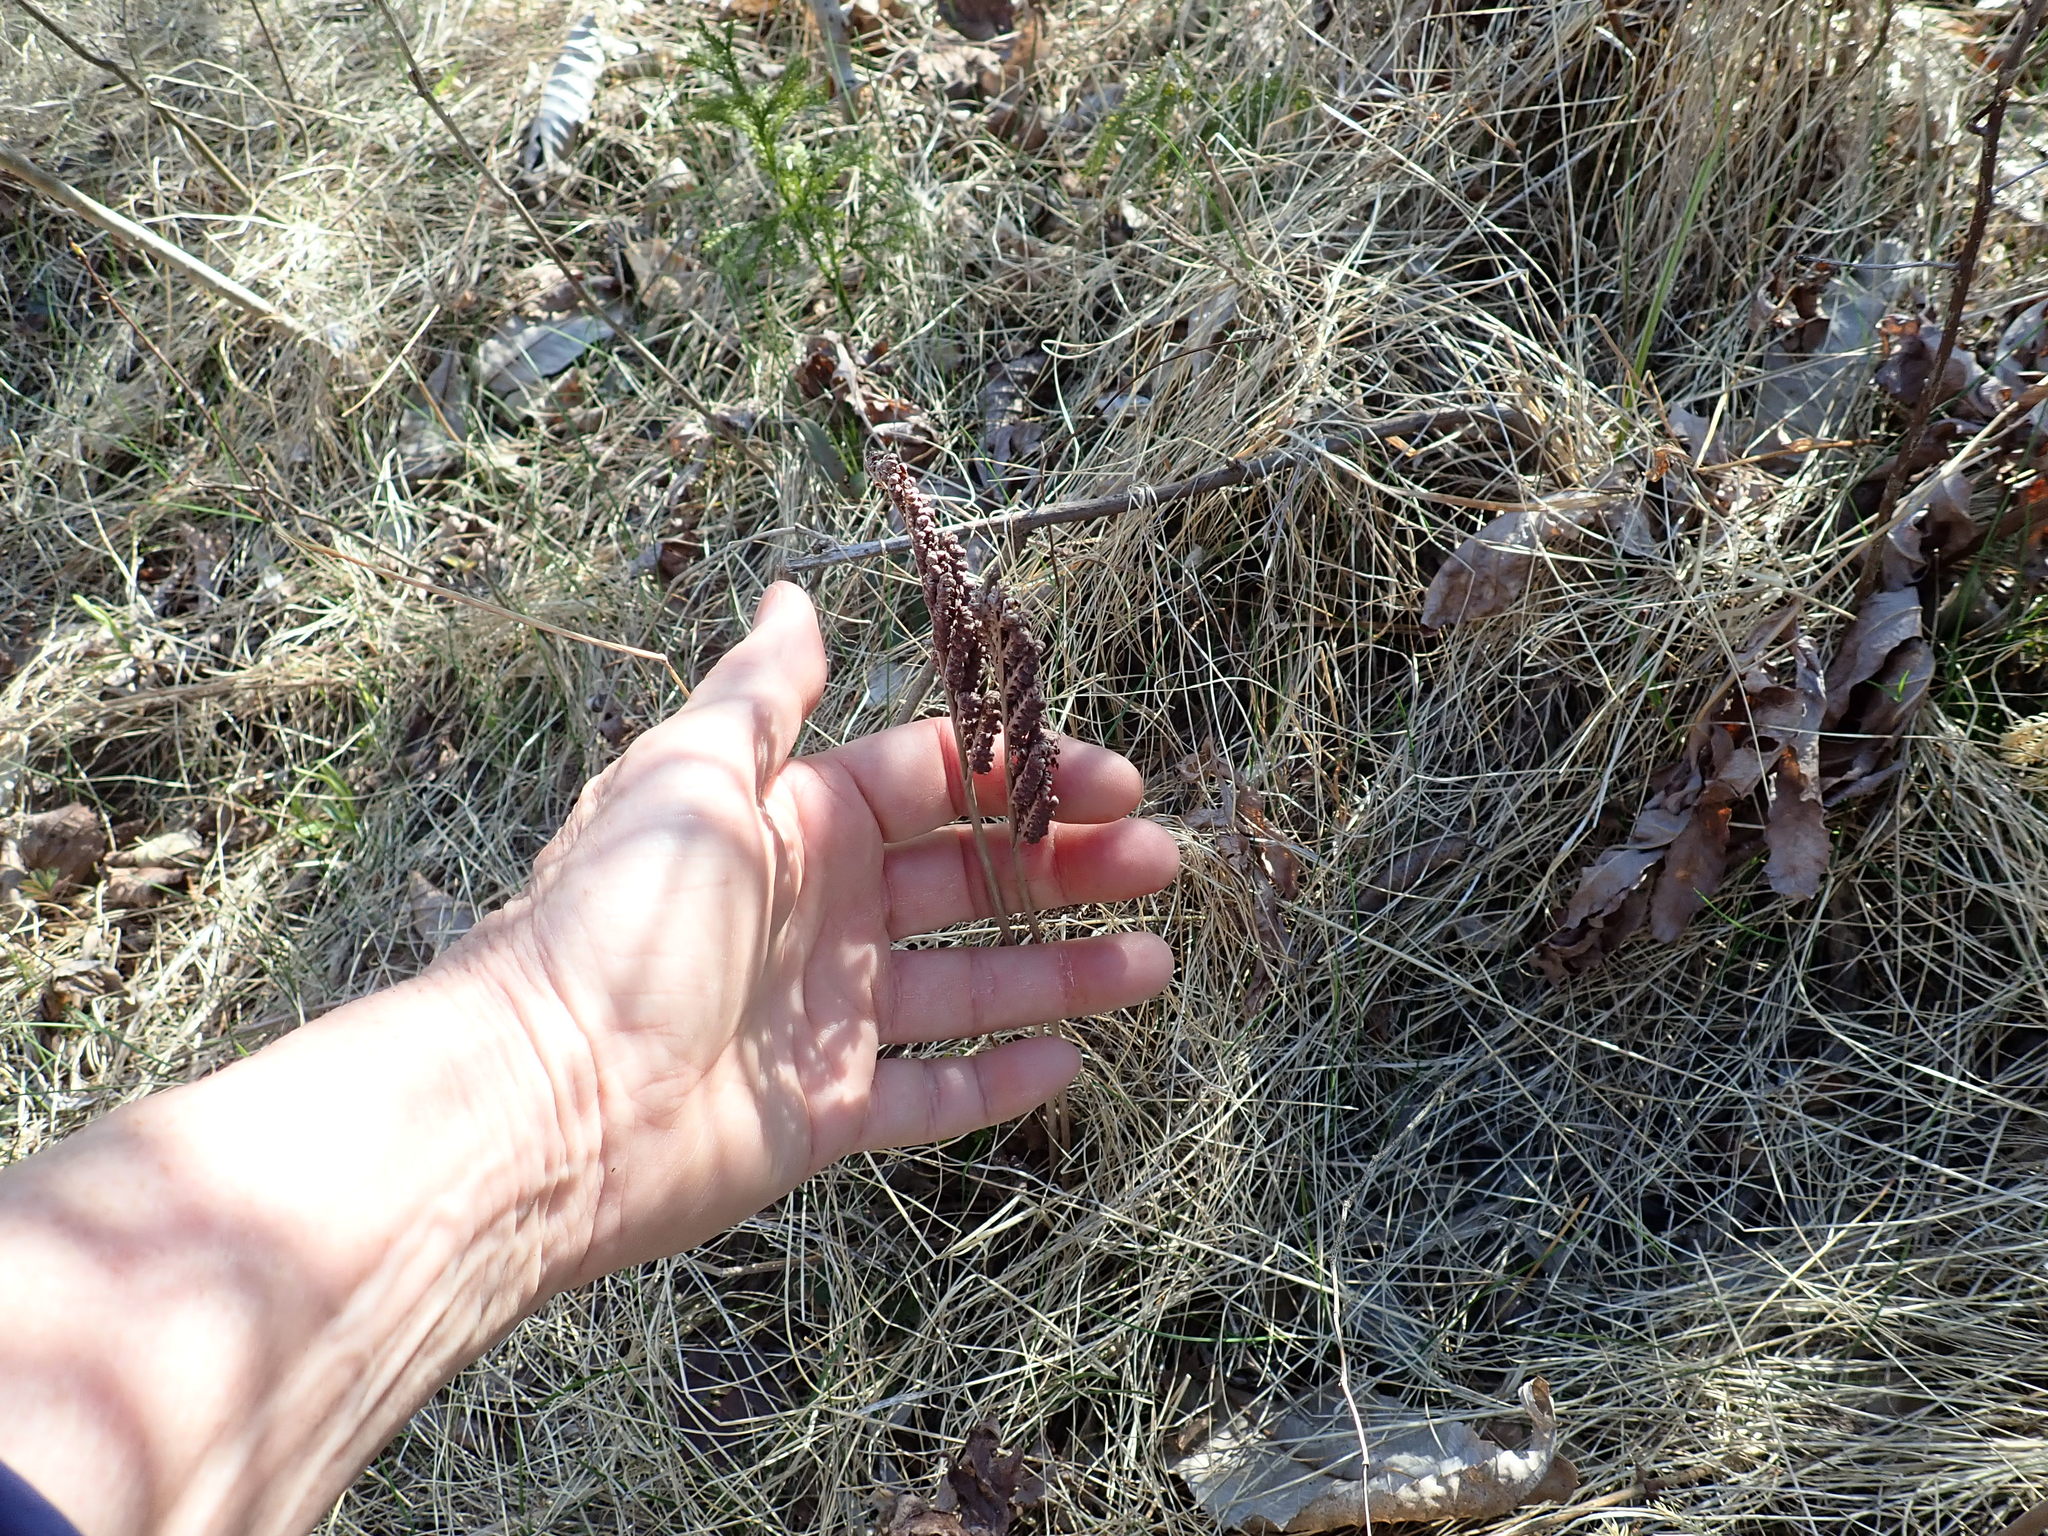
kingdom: Plantae
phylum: Tracheophyta
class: Polypodiopsida
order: Polypodiales
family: Onocleaceae
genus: Onoclea
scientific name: Onoclea sensibilis
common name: Sensitive fern
